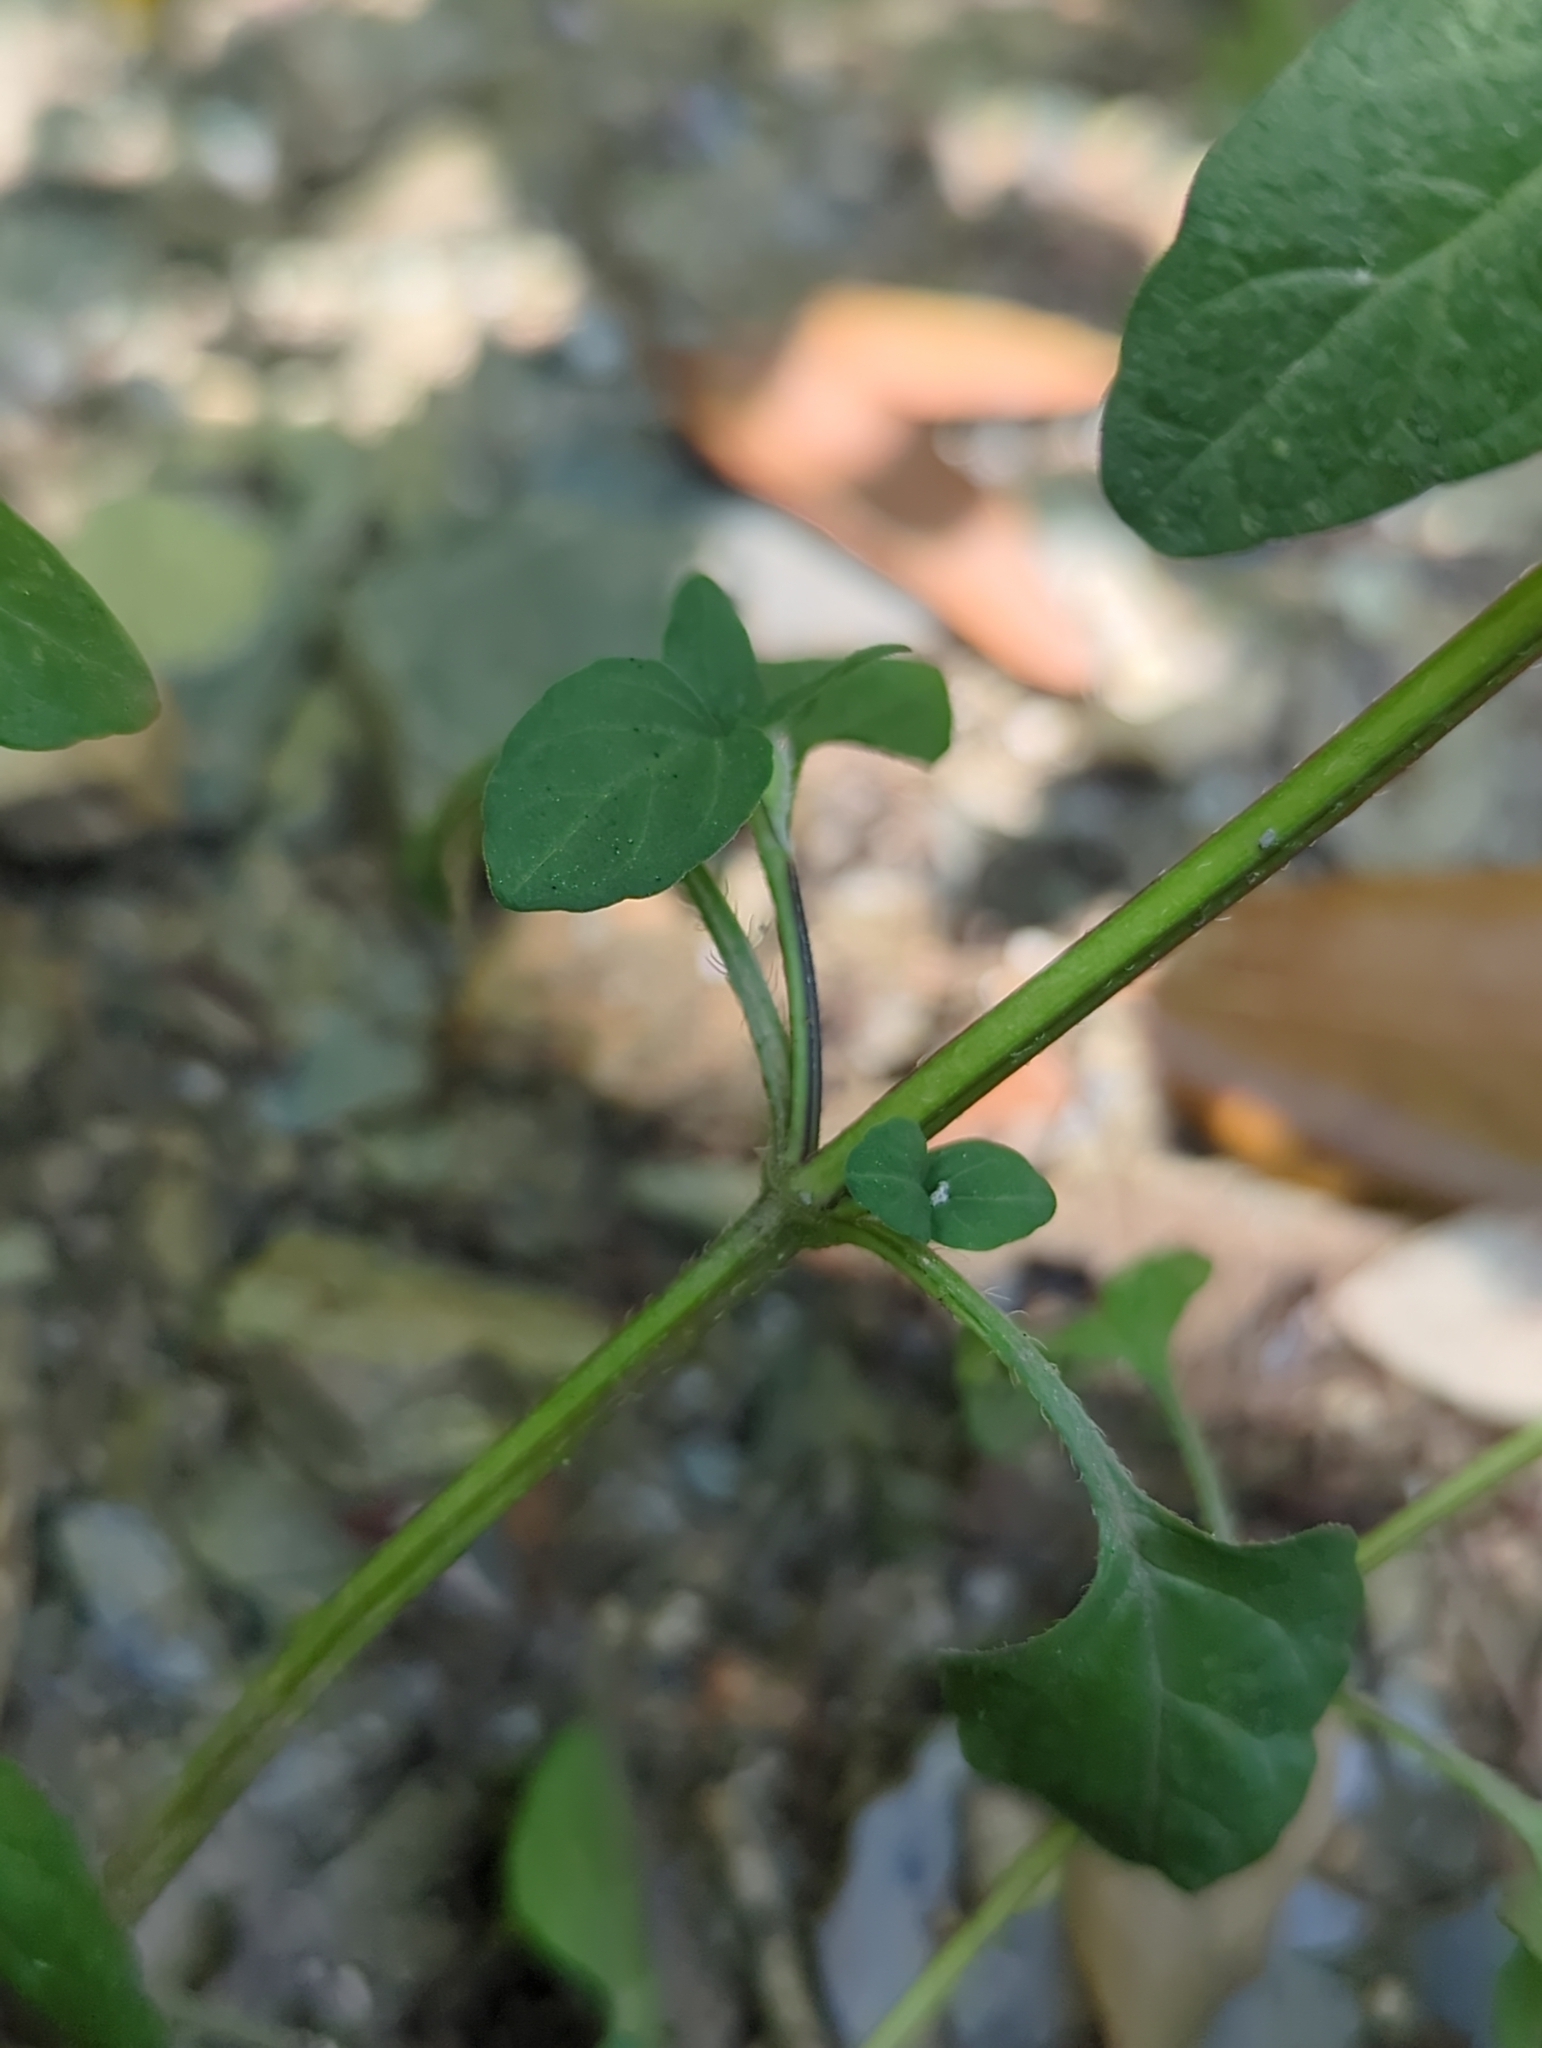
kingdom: Plantae
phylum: Tracheophyta
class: Magnoliopsida
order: Lamiales
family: Lamiaceae
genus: Prunella
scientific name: Prunella vulgaris
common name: Heal-all
